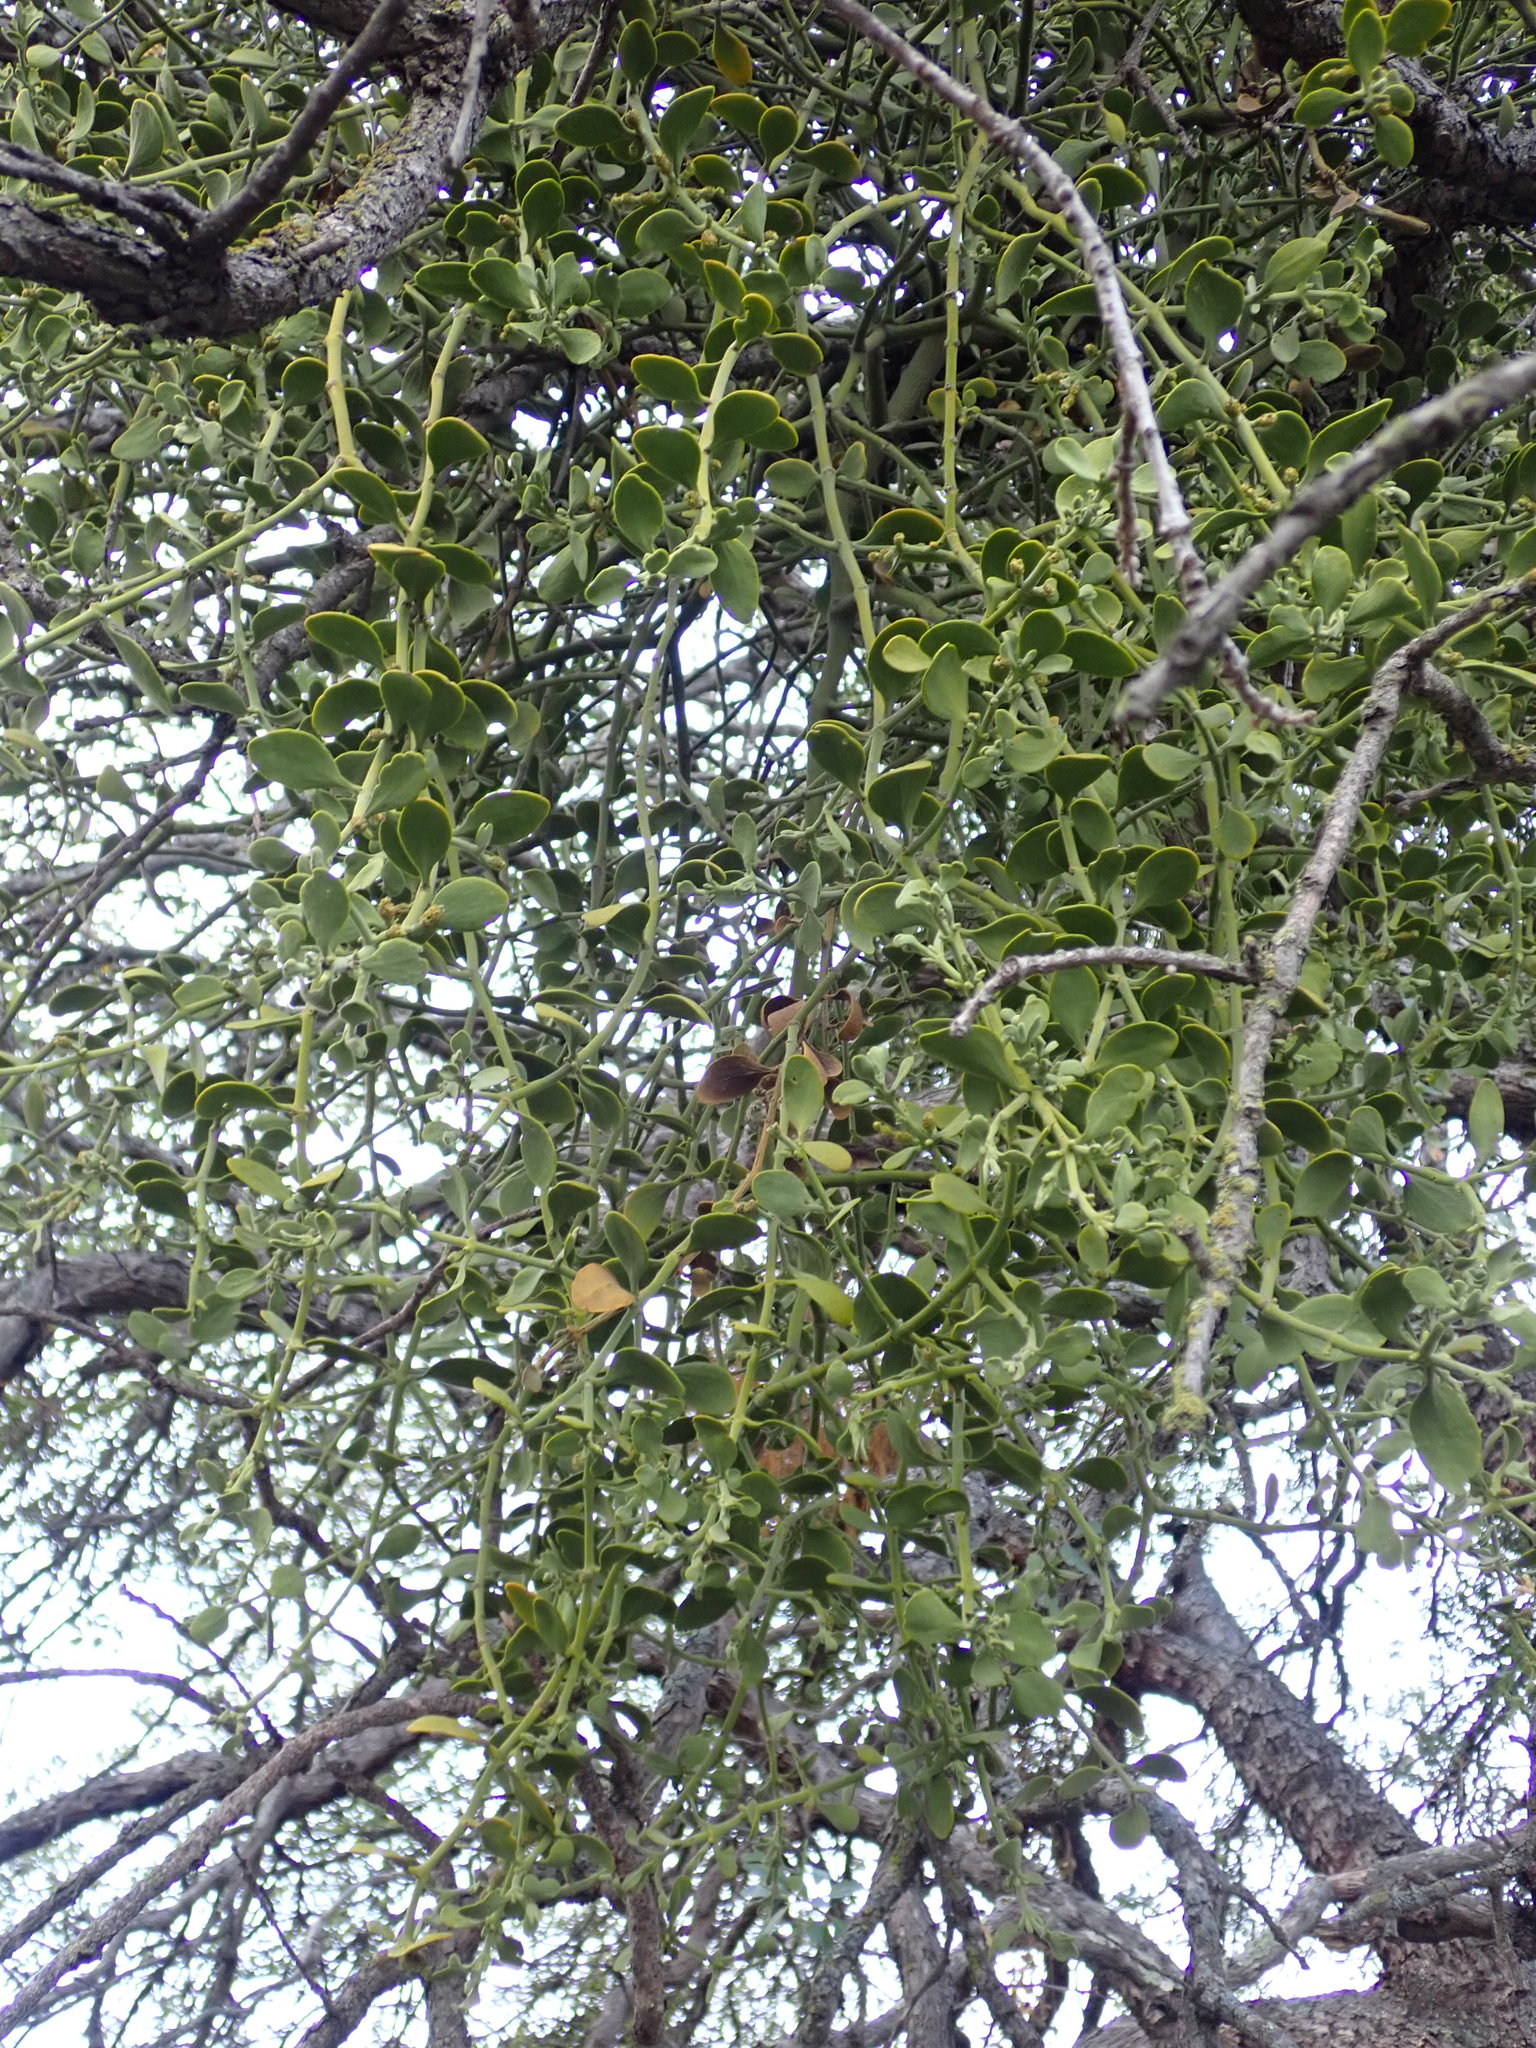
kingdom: Plantae
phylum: Tracheophyta
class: Magnoliopsida
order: Santalales
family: Viscaceae
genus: Phoradendron
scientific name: Phoradendron leucarpum
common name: Pacific mistletoe
